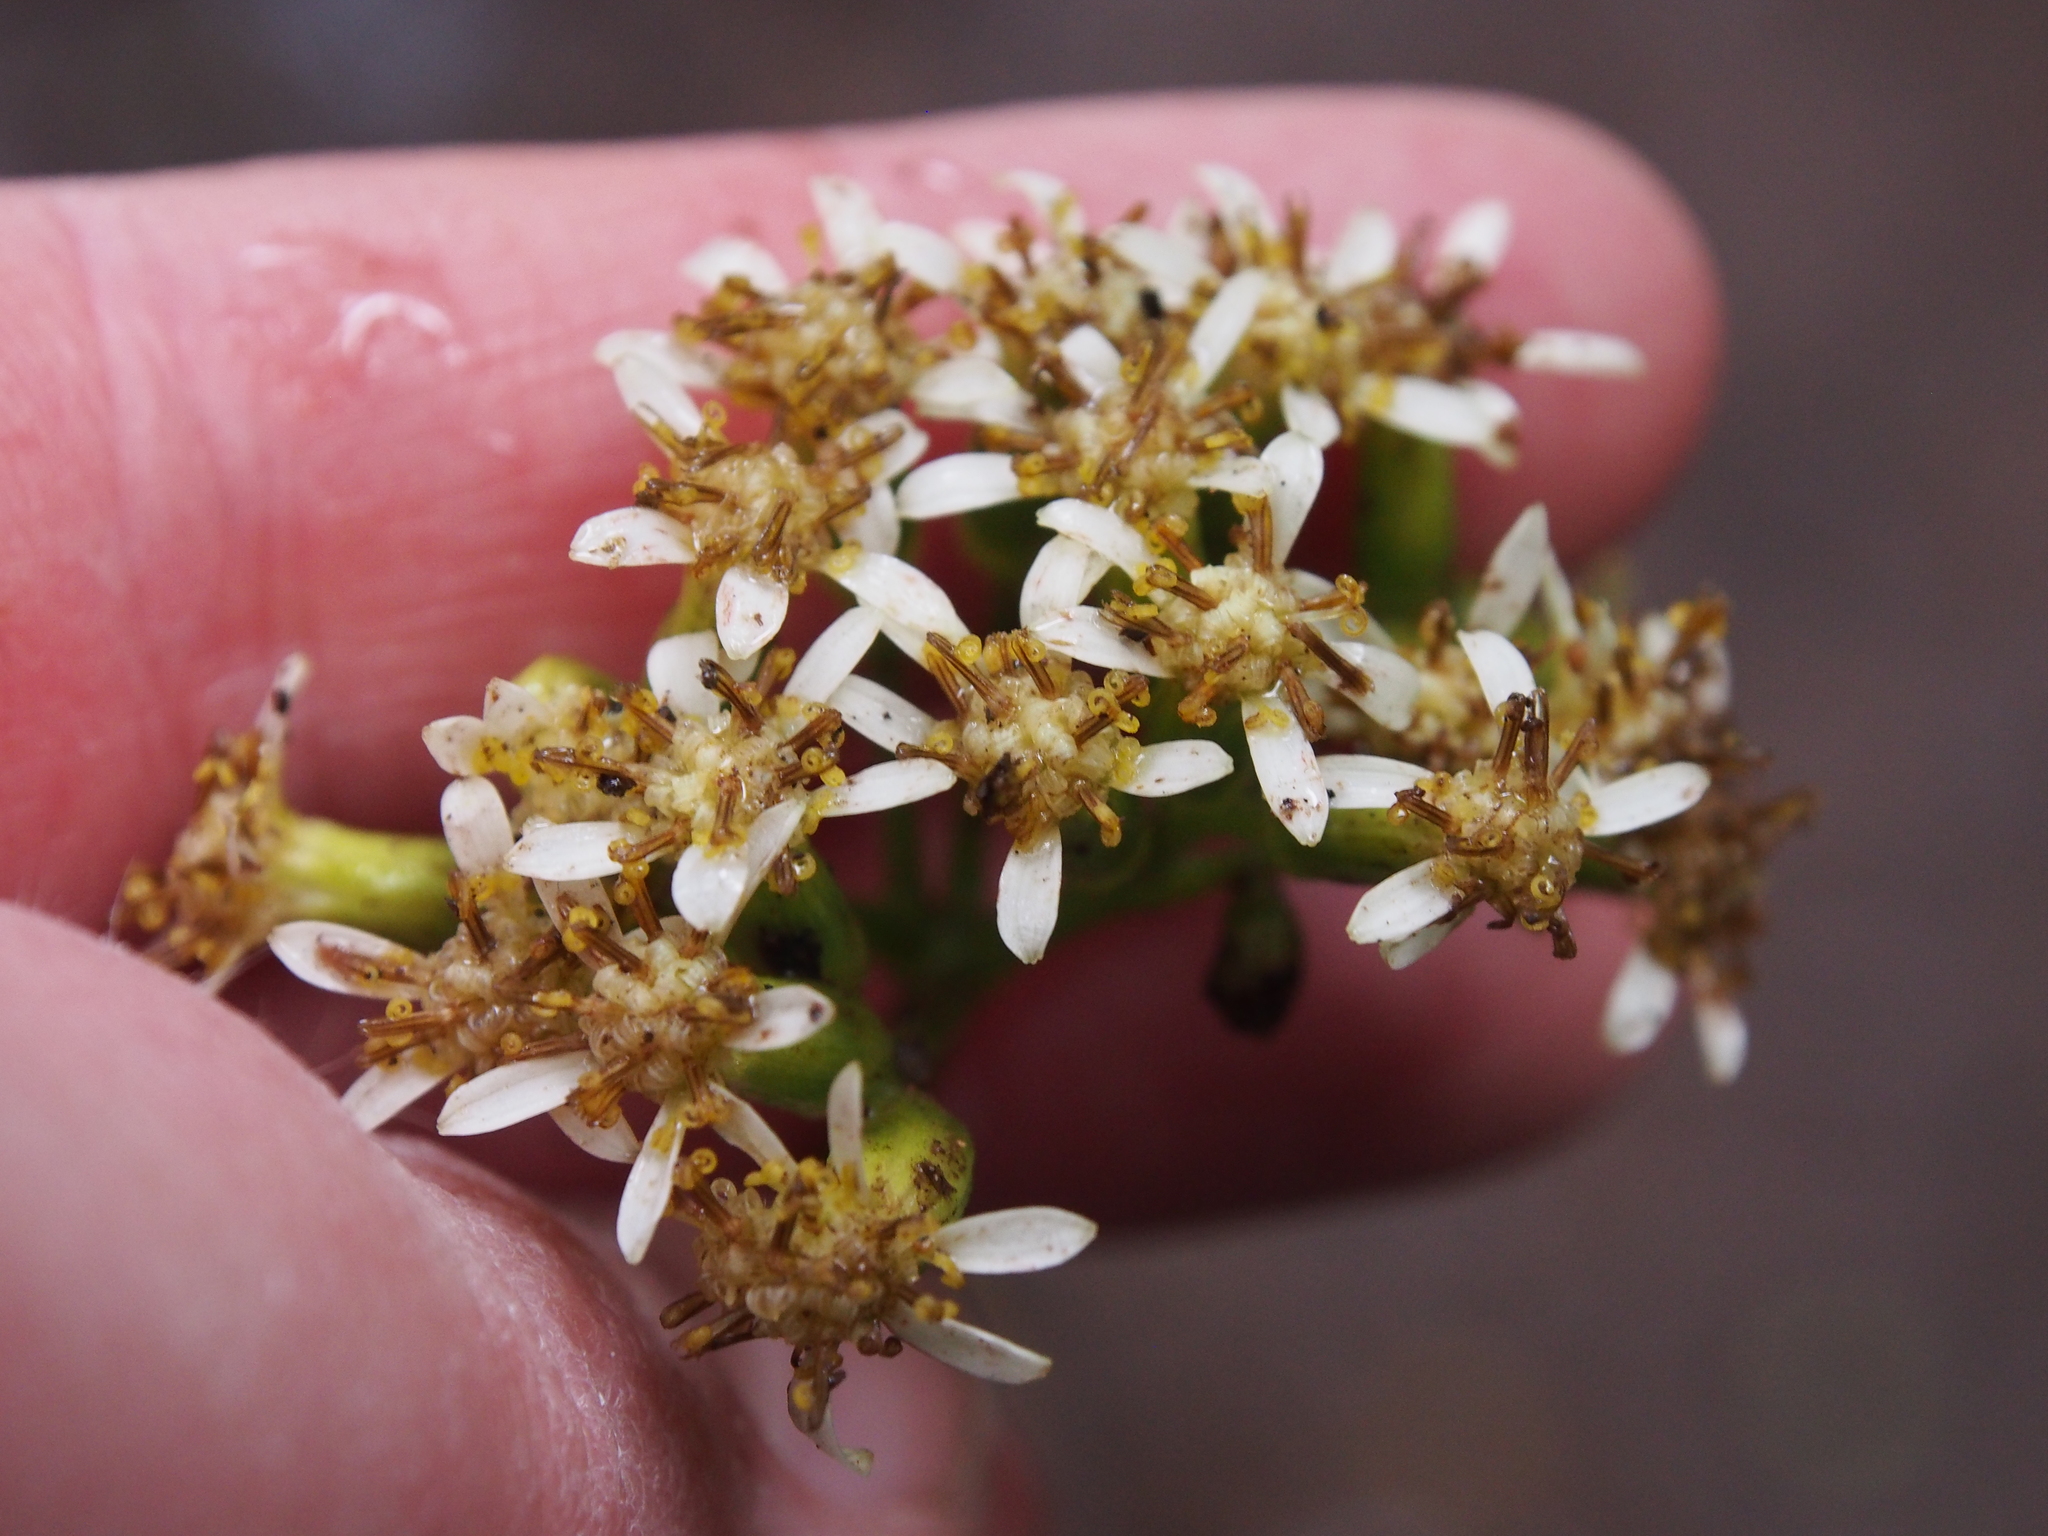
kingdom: Plantae
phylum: Tracheophyta
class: Magnoliopsida
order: Asterales
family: Asteraceae
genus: Trixis
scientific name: Trixis inula
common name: Tropical threefold
